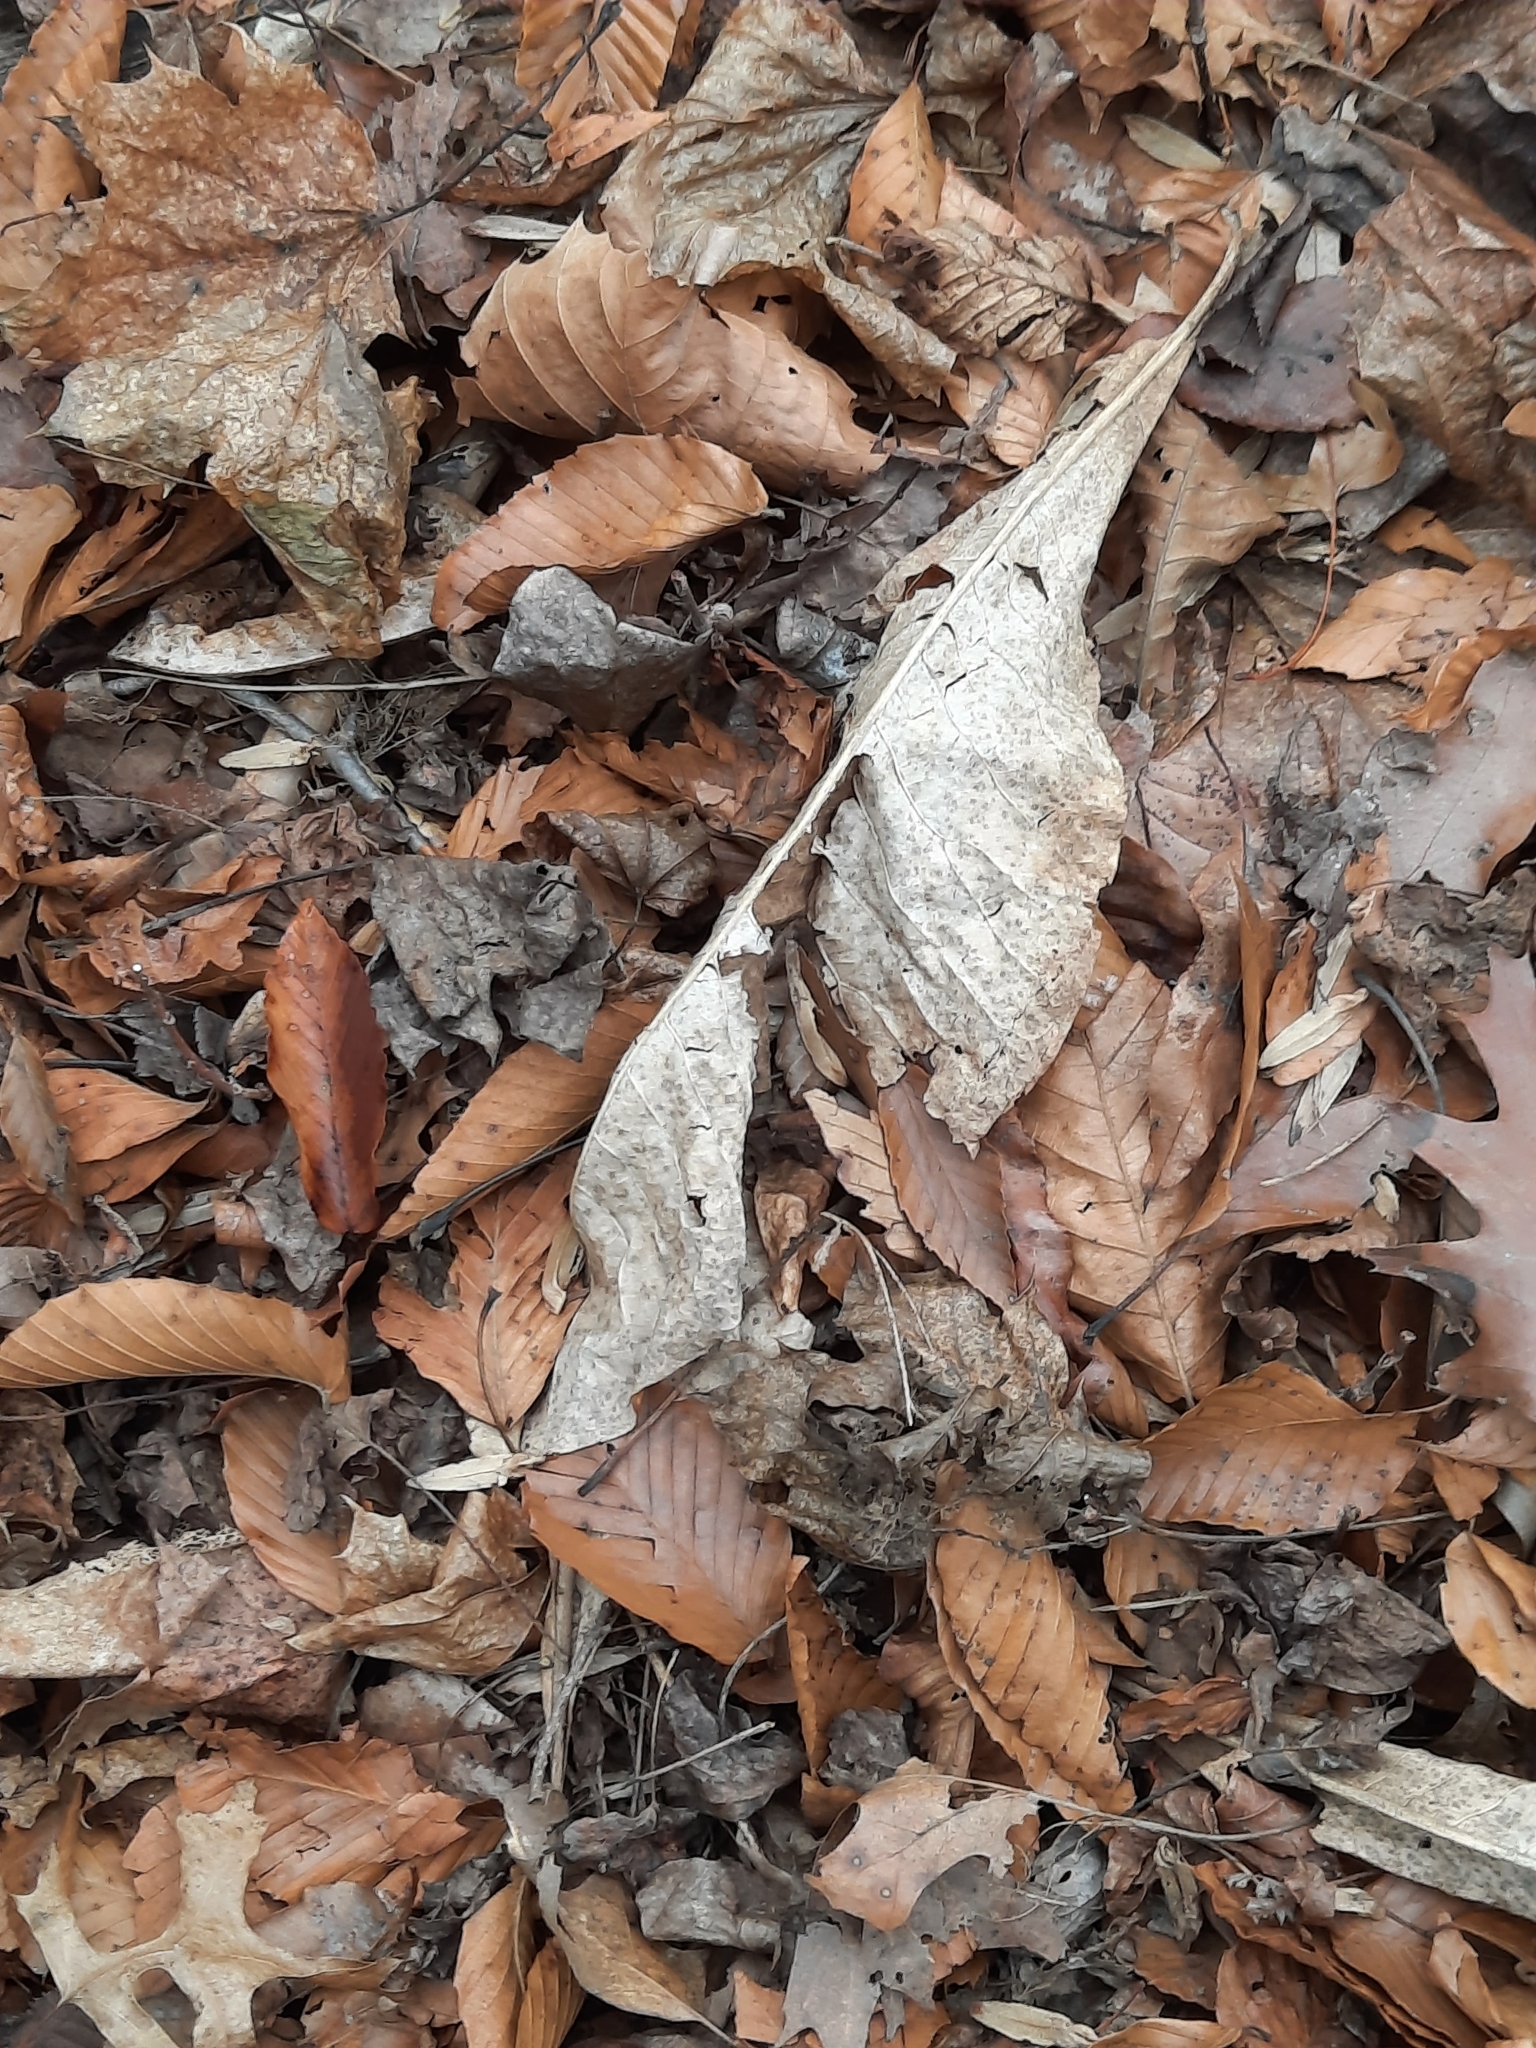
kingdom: Plantae
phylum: Tracheophyta
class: Magnoliopsida
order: Magnoliales
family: Magnoliaceae
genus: Magnolia
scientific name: Magnolia tripetala
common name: Umbrella magnolia
